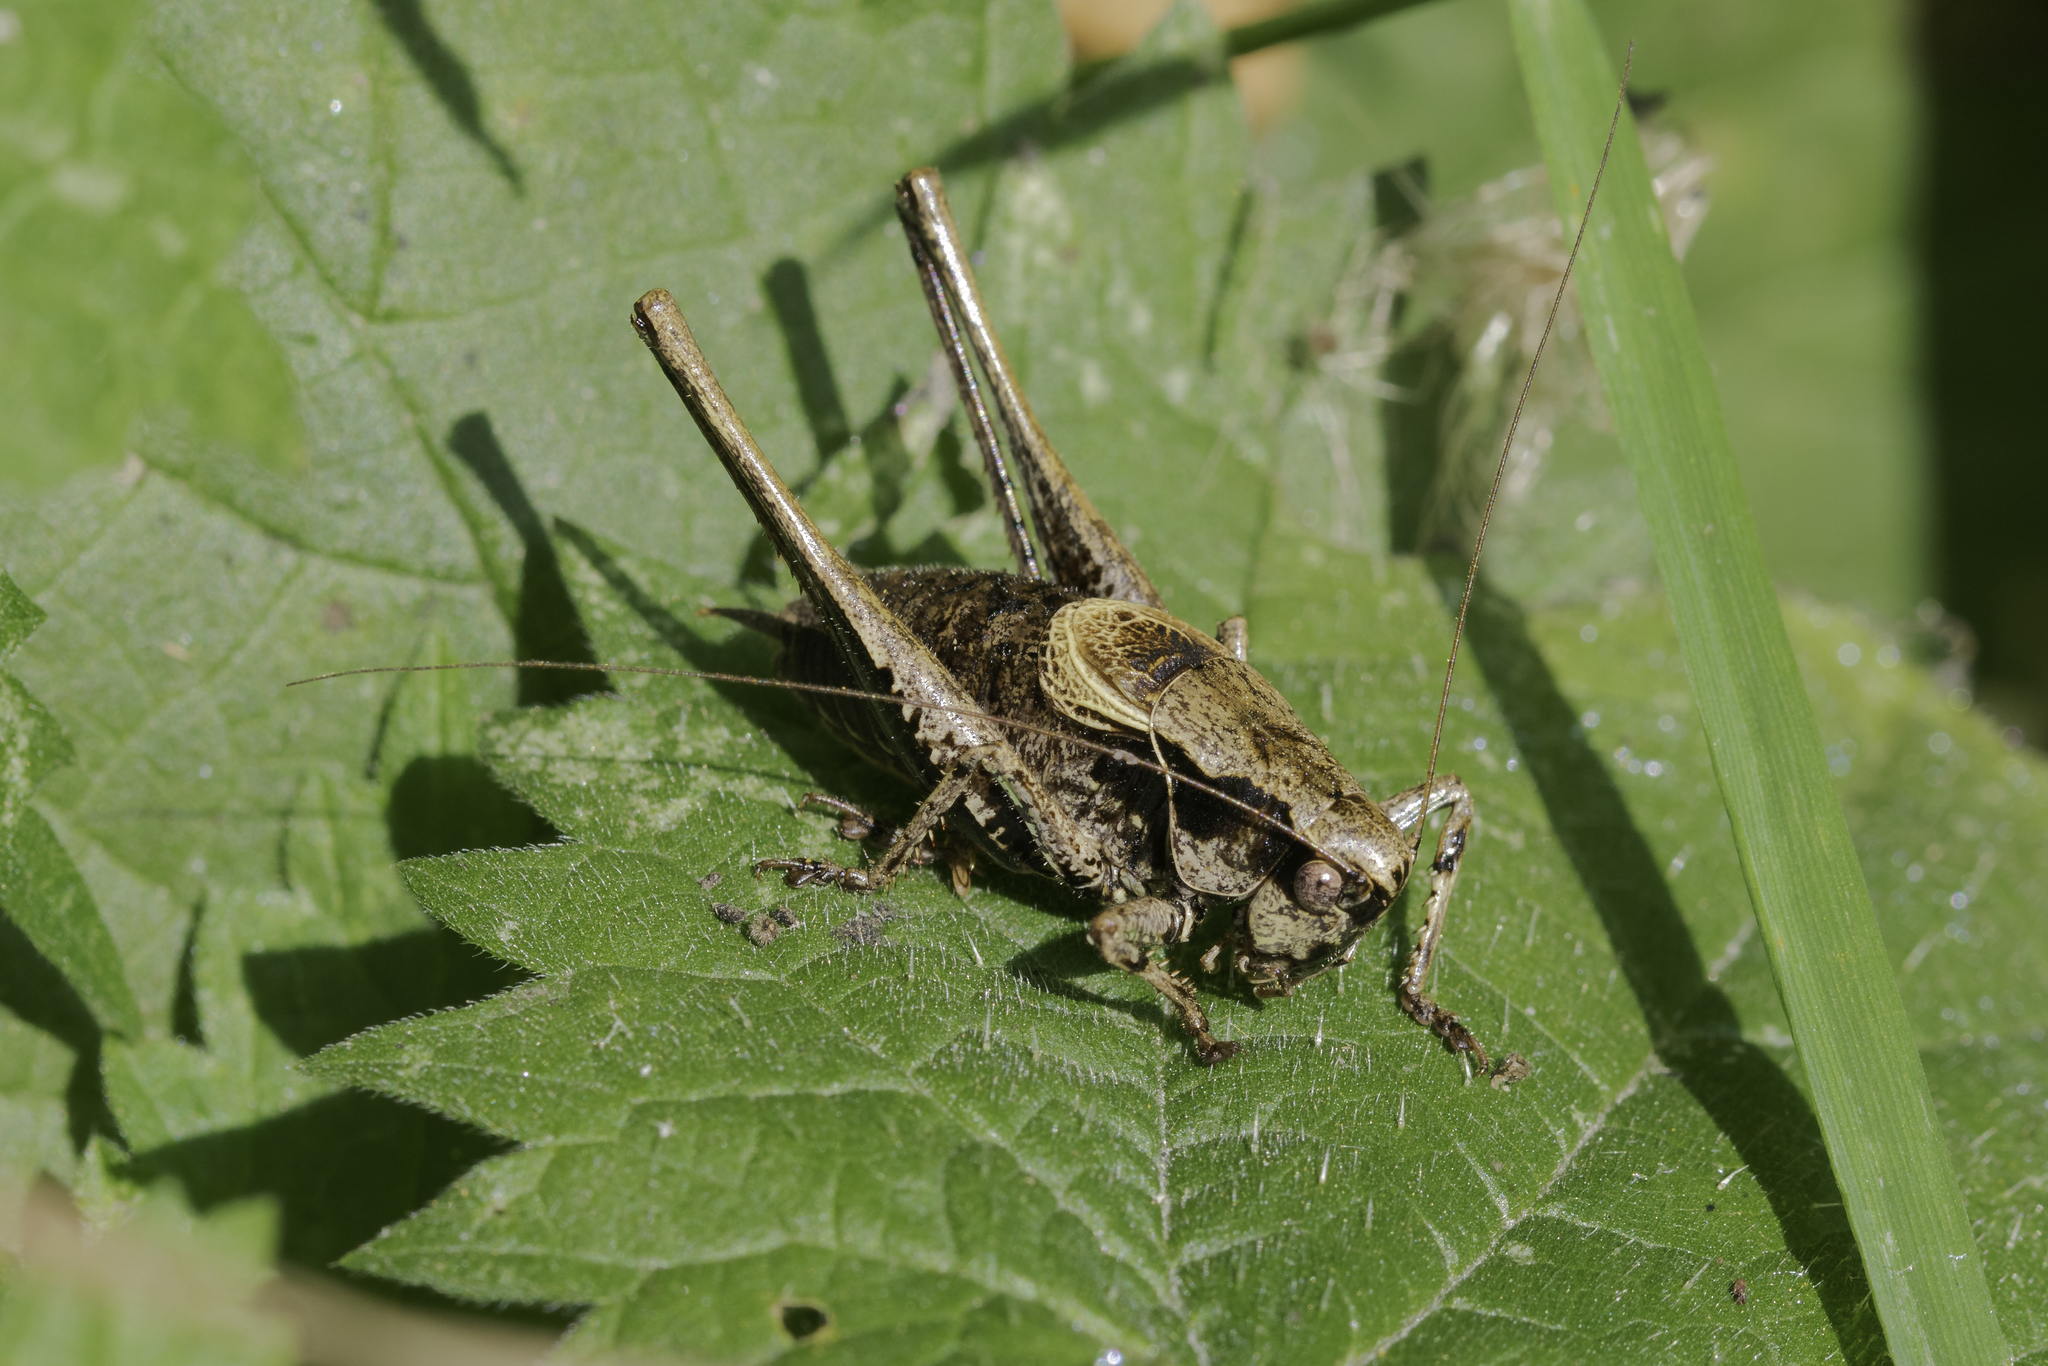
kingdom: Animalia
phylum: Arthropoda
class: Insecta
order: Orthoptera
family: Tettigoniidae
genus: Pholidoptera
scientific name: Pholidoptera griseoaptera
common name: Dark bush-cricket
